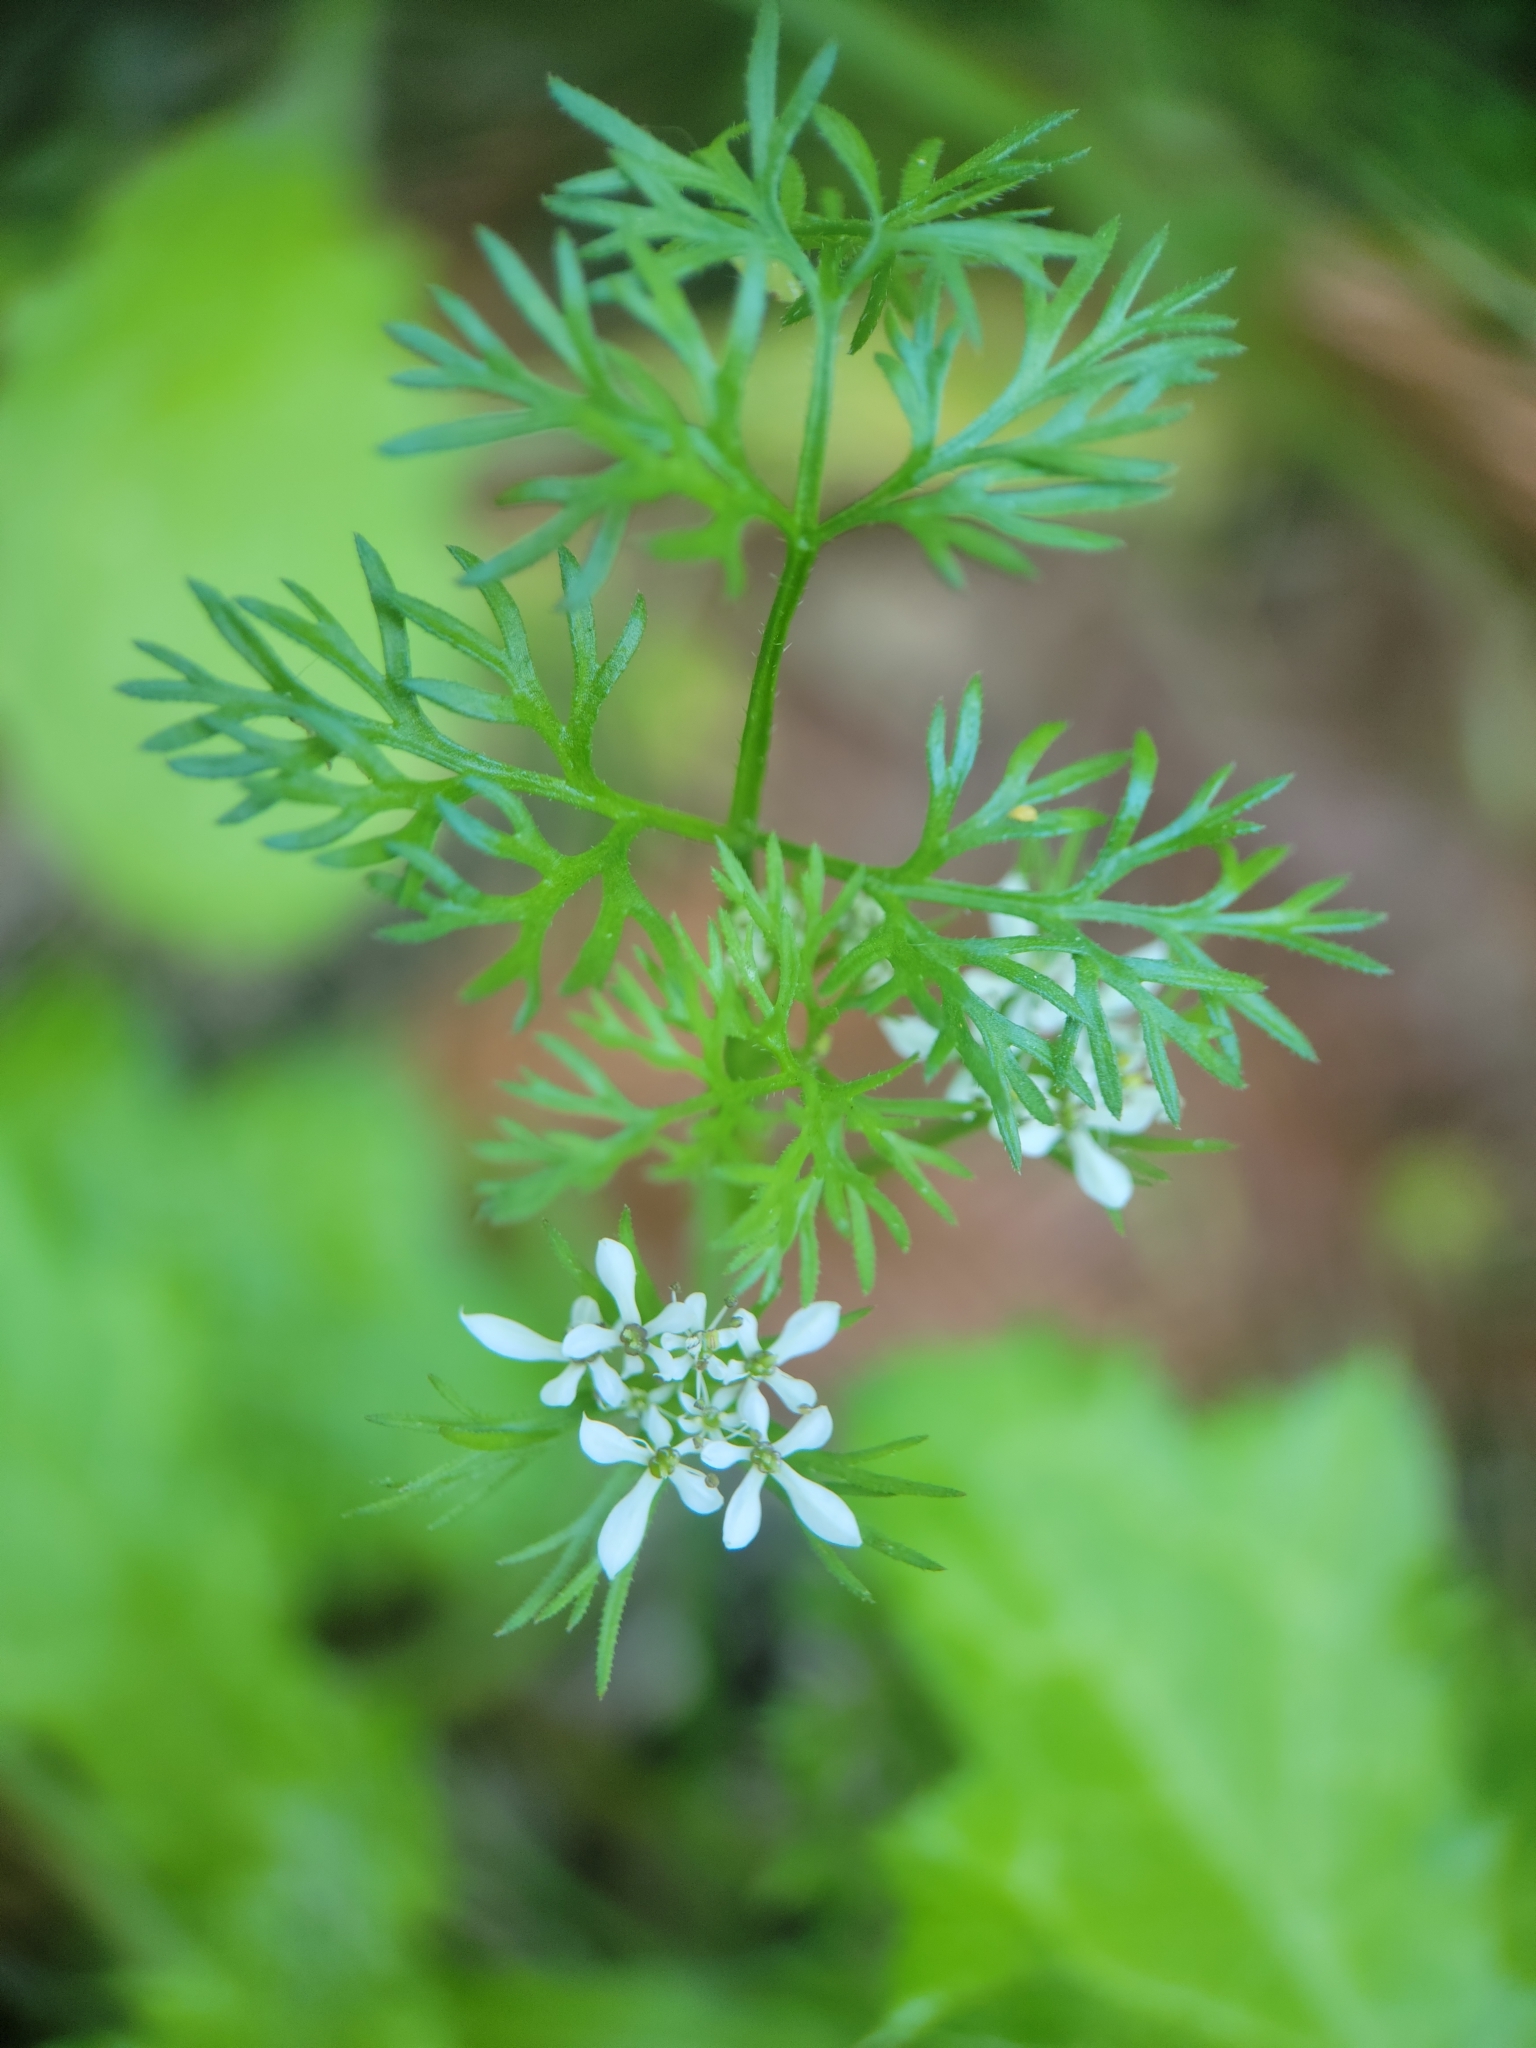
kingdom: Plantae
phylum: Tracheophyta
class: Magnoliopsida
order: Apiales
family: Apiaceae
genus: Scandix
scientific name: Scandix pecten-veneris
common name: Shepherd's-needle
